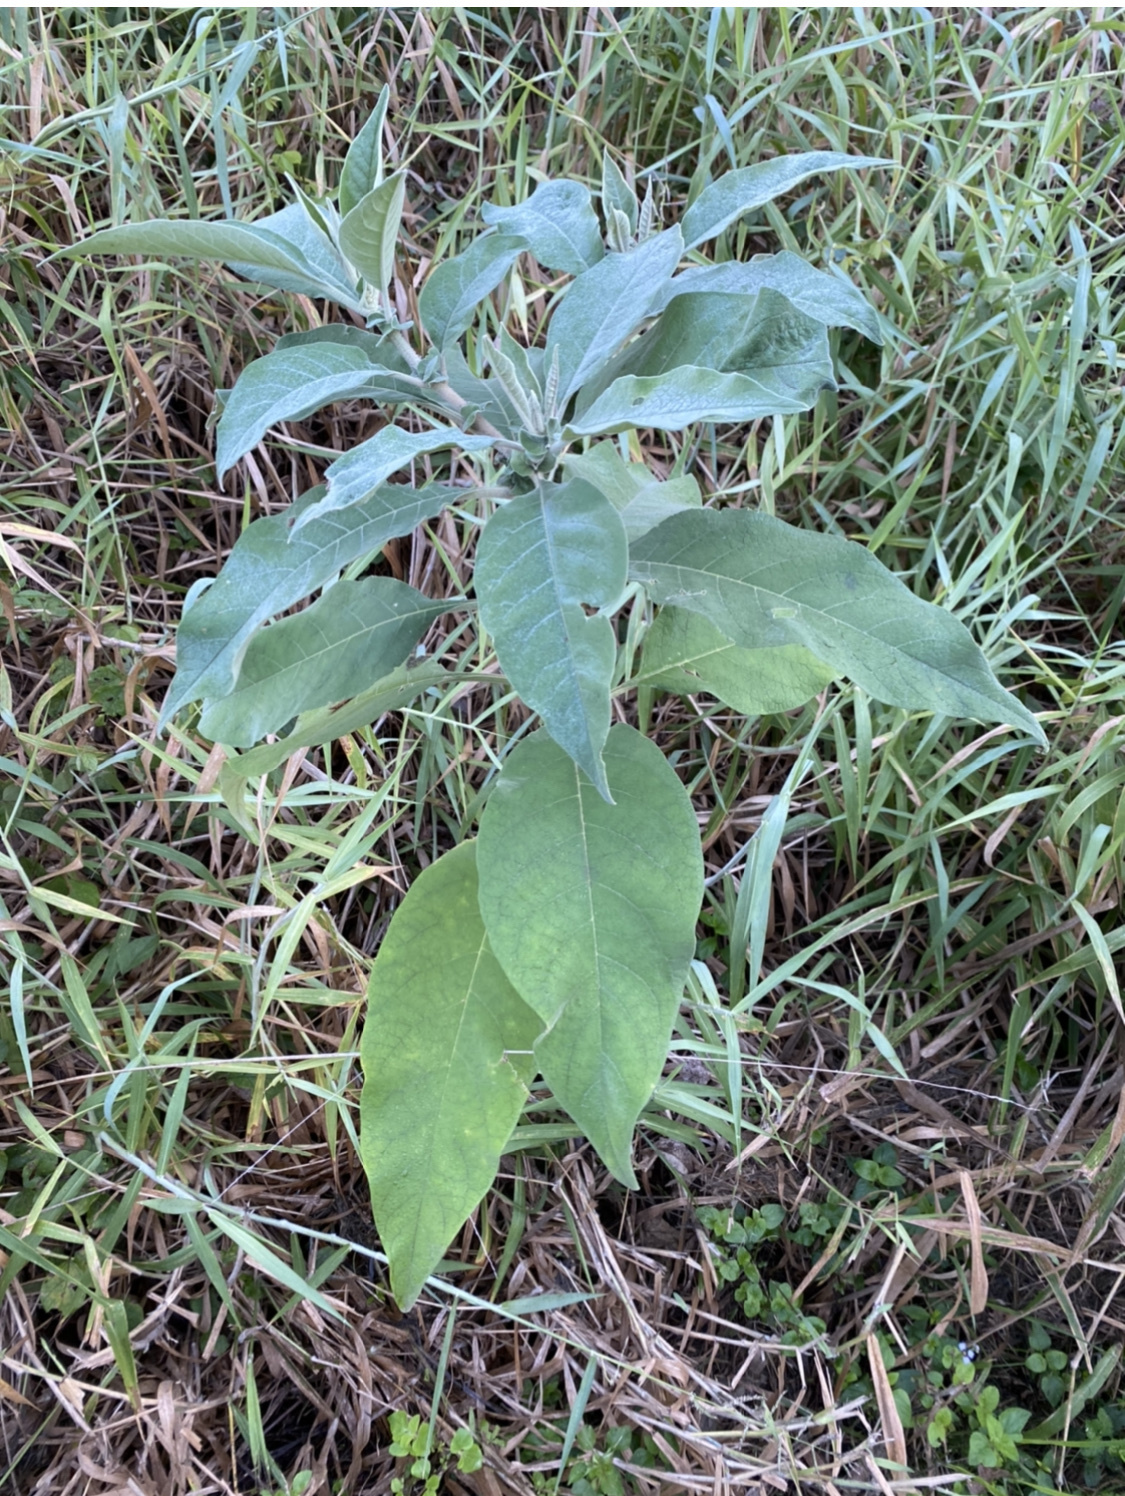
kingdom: Plantae
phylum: Tracheophyta
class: Magnoliopsida
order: Solanales
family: Solanaceae
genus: Solanum
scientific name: Solanum mauritianum
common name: Earleaf nightshade
